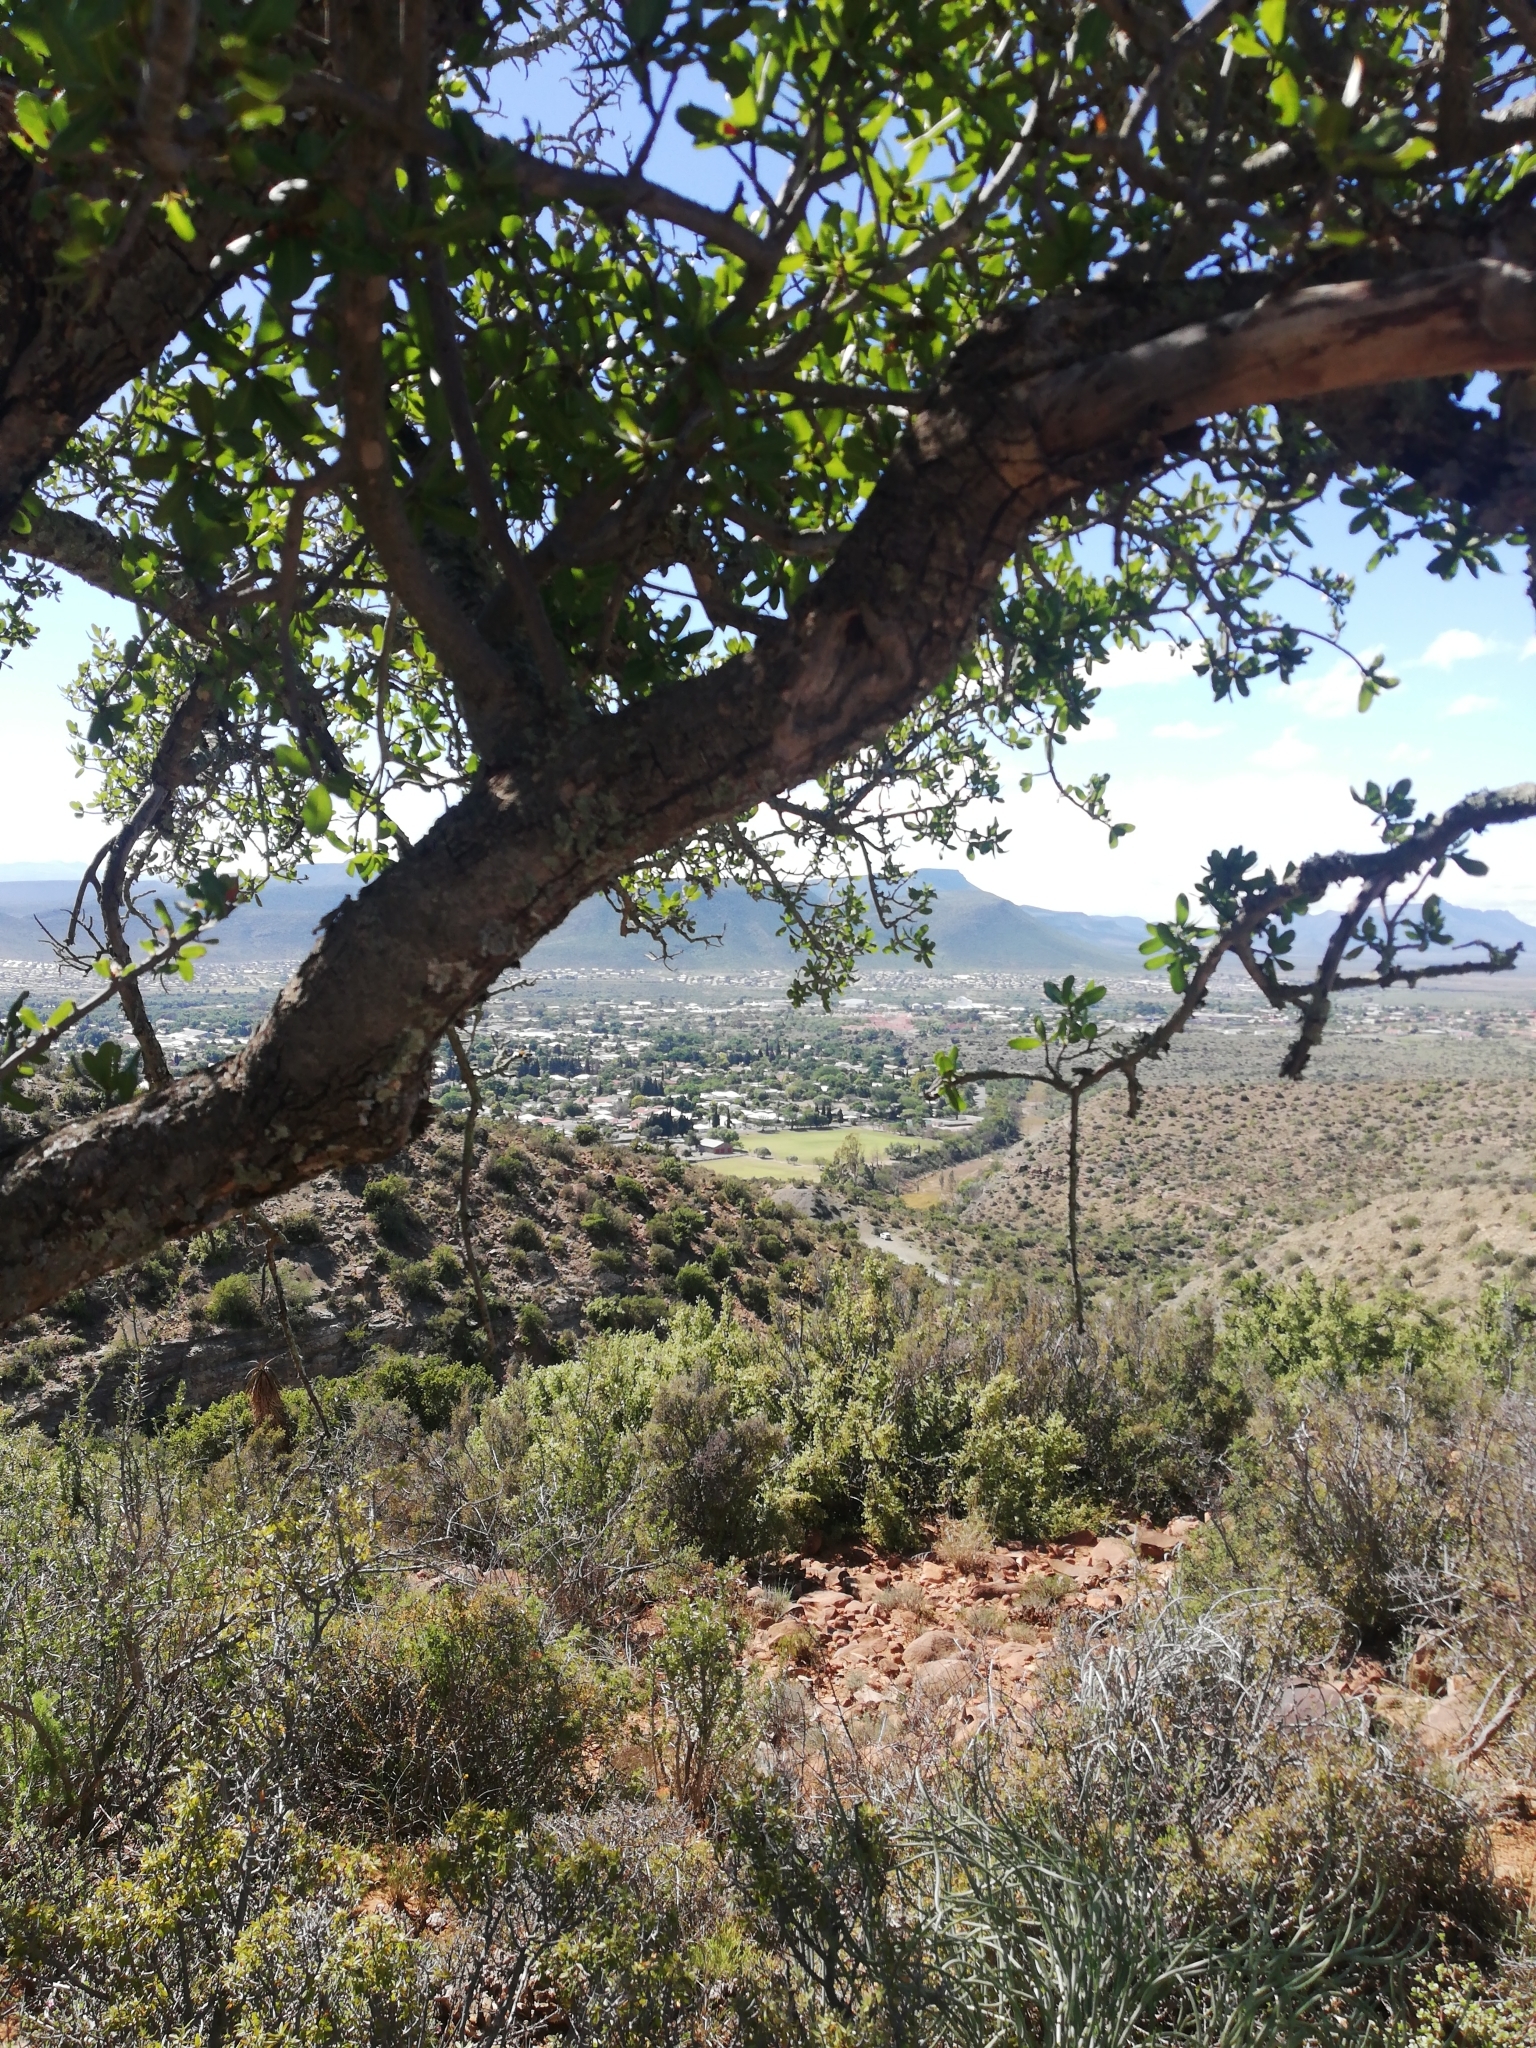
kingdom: Plantae
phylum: Tracheophyta
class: Magnoliopsida
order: Sapindales
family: Sapindaceae
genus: Pappea
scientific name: Pappea capensis
